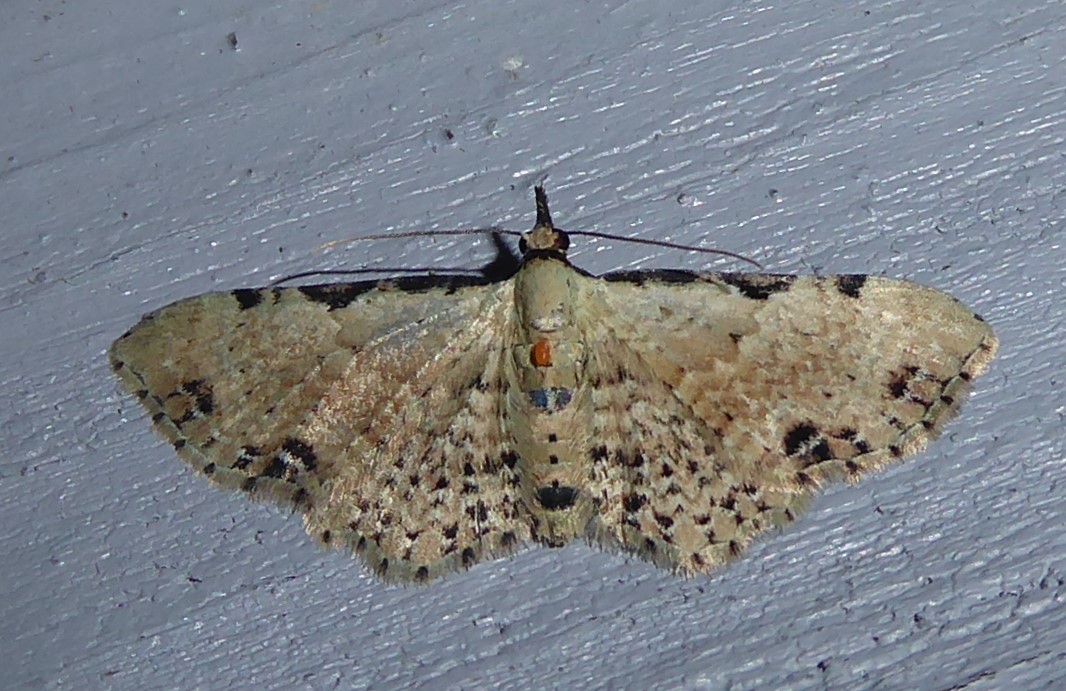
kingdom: Animalia
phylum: Arthropoda
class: Insecta
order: Lepidoptera
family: Geometridae
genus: Pasiphila
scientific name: Pasiphila fumipalpata
